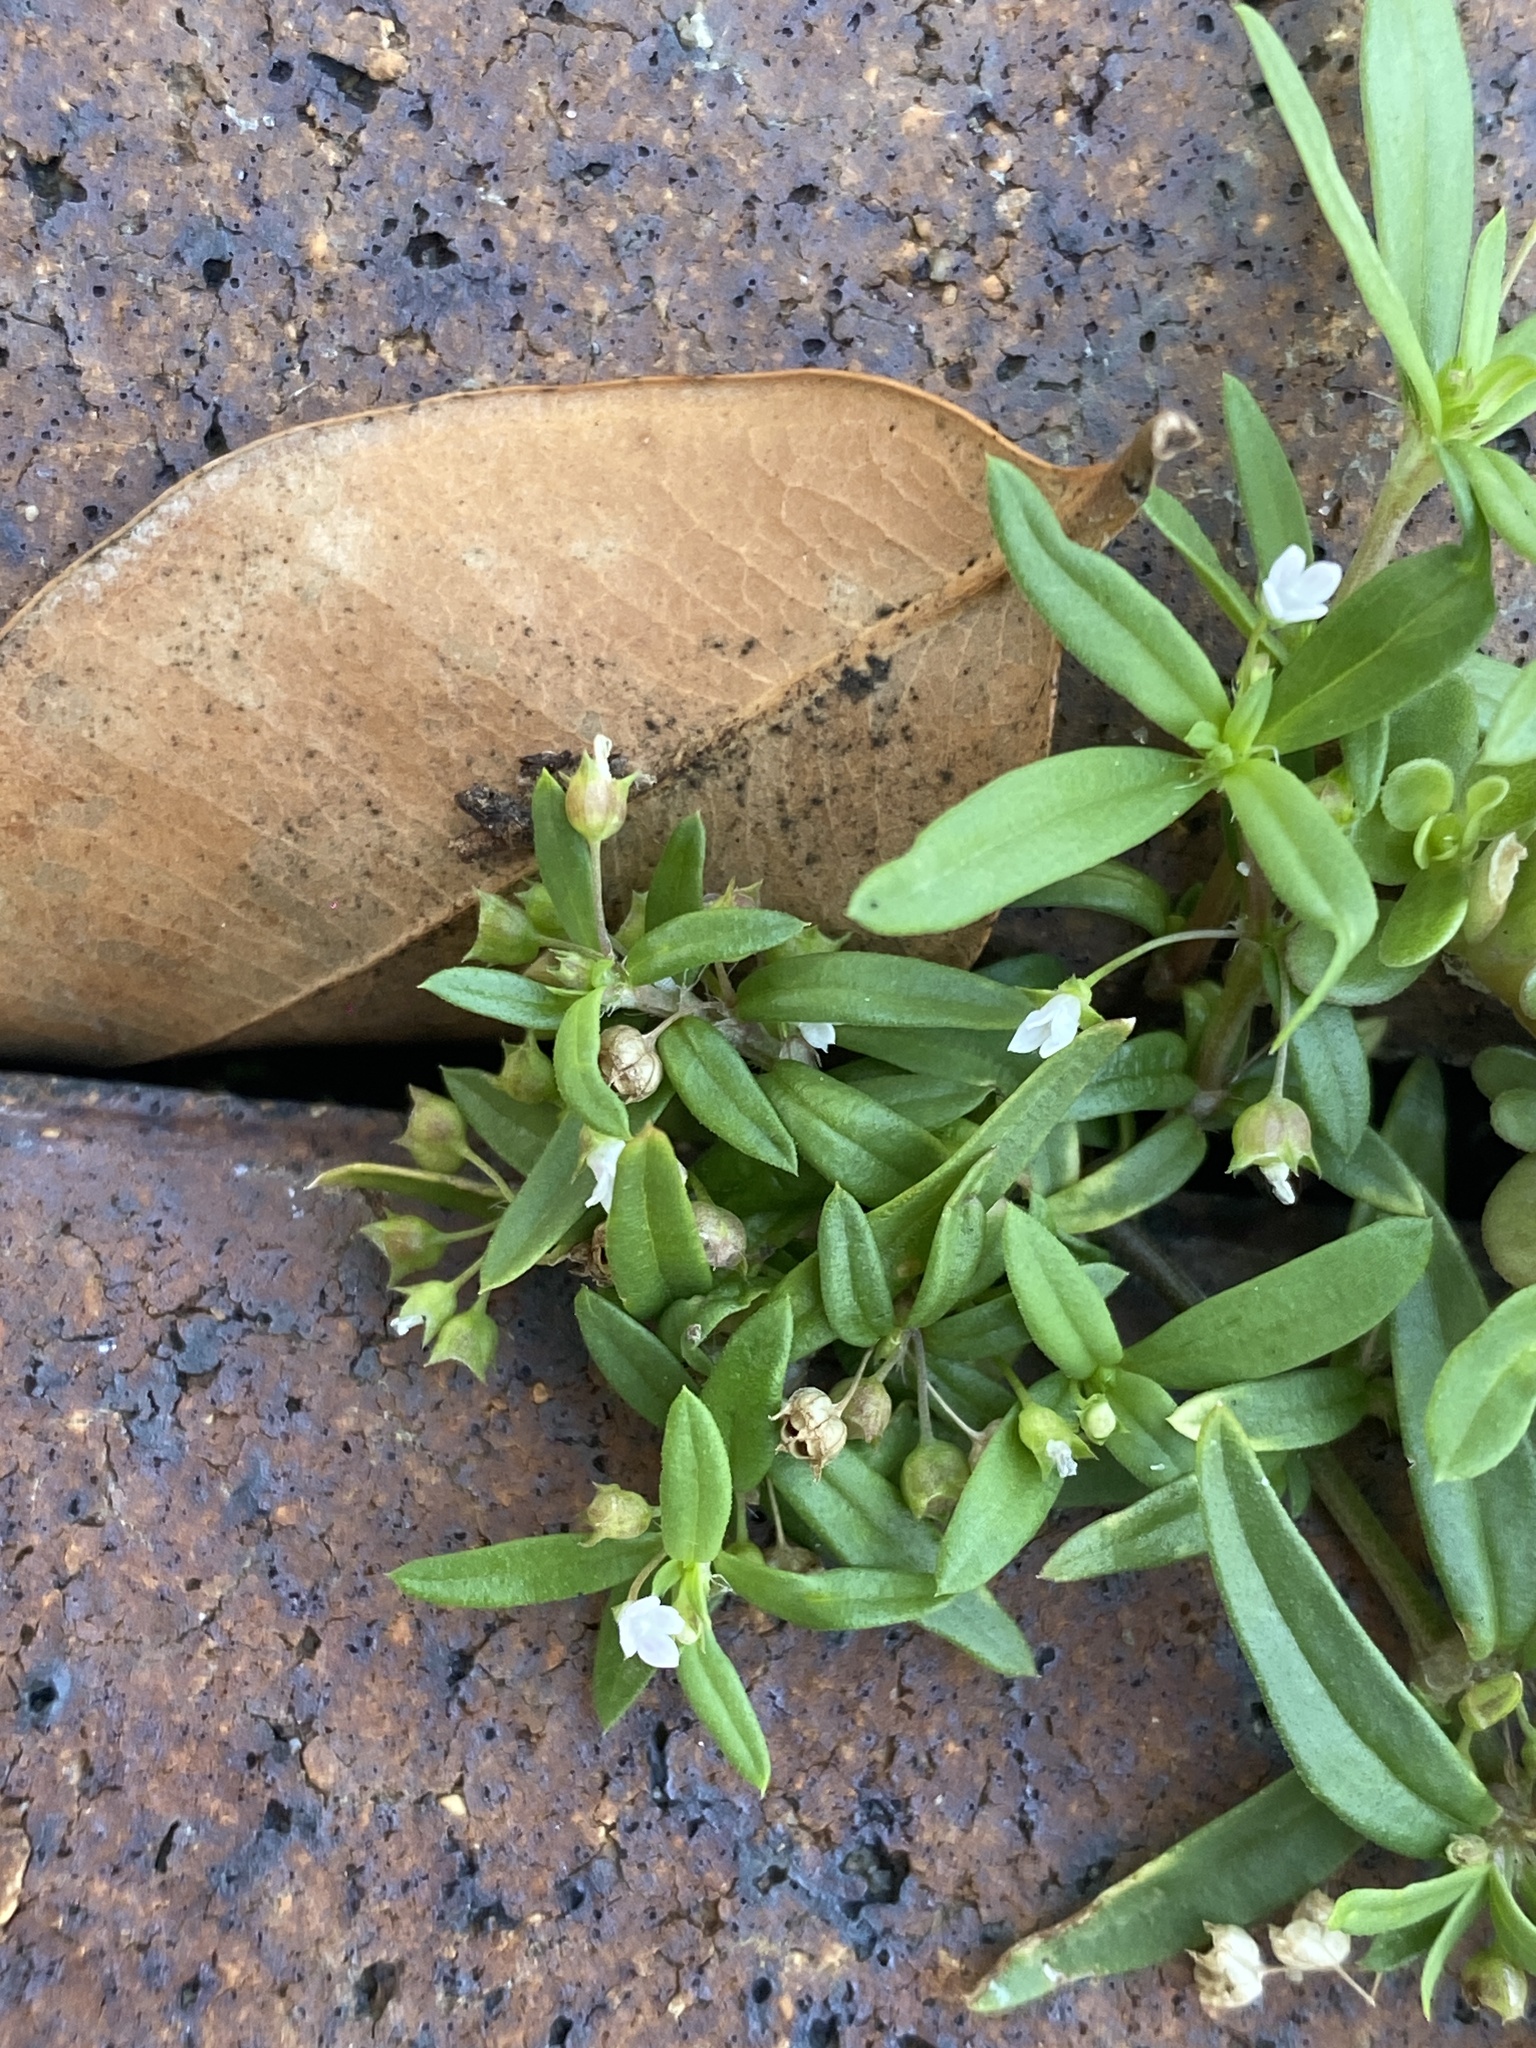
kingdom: Plantae
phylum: Tracheophyta
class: Magnoliopsida
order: Gentianales
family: Rubiaceae
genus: Oldenlandia
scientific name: Oldenlandia corymbosa
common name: Flat-top mille graines
